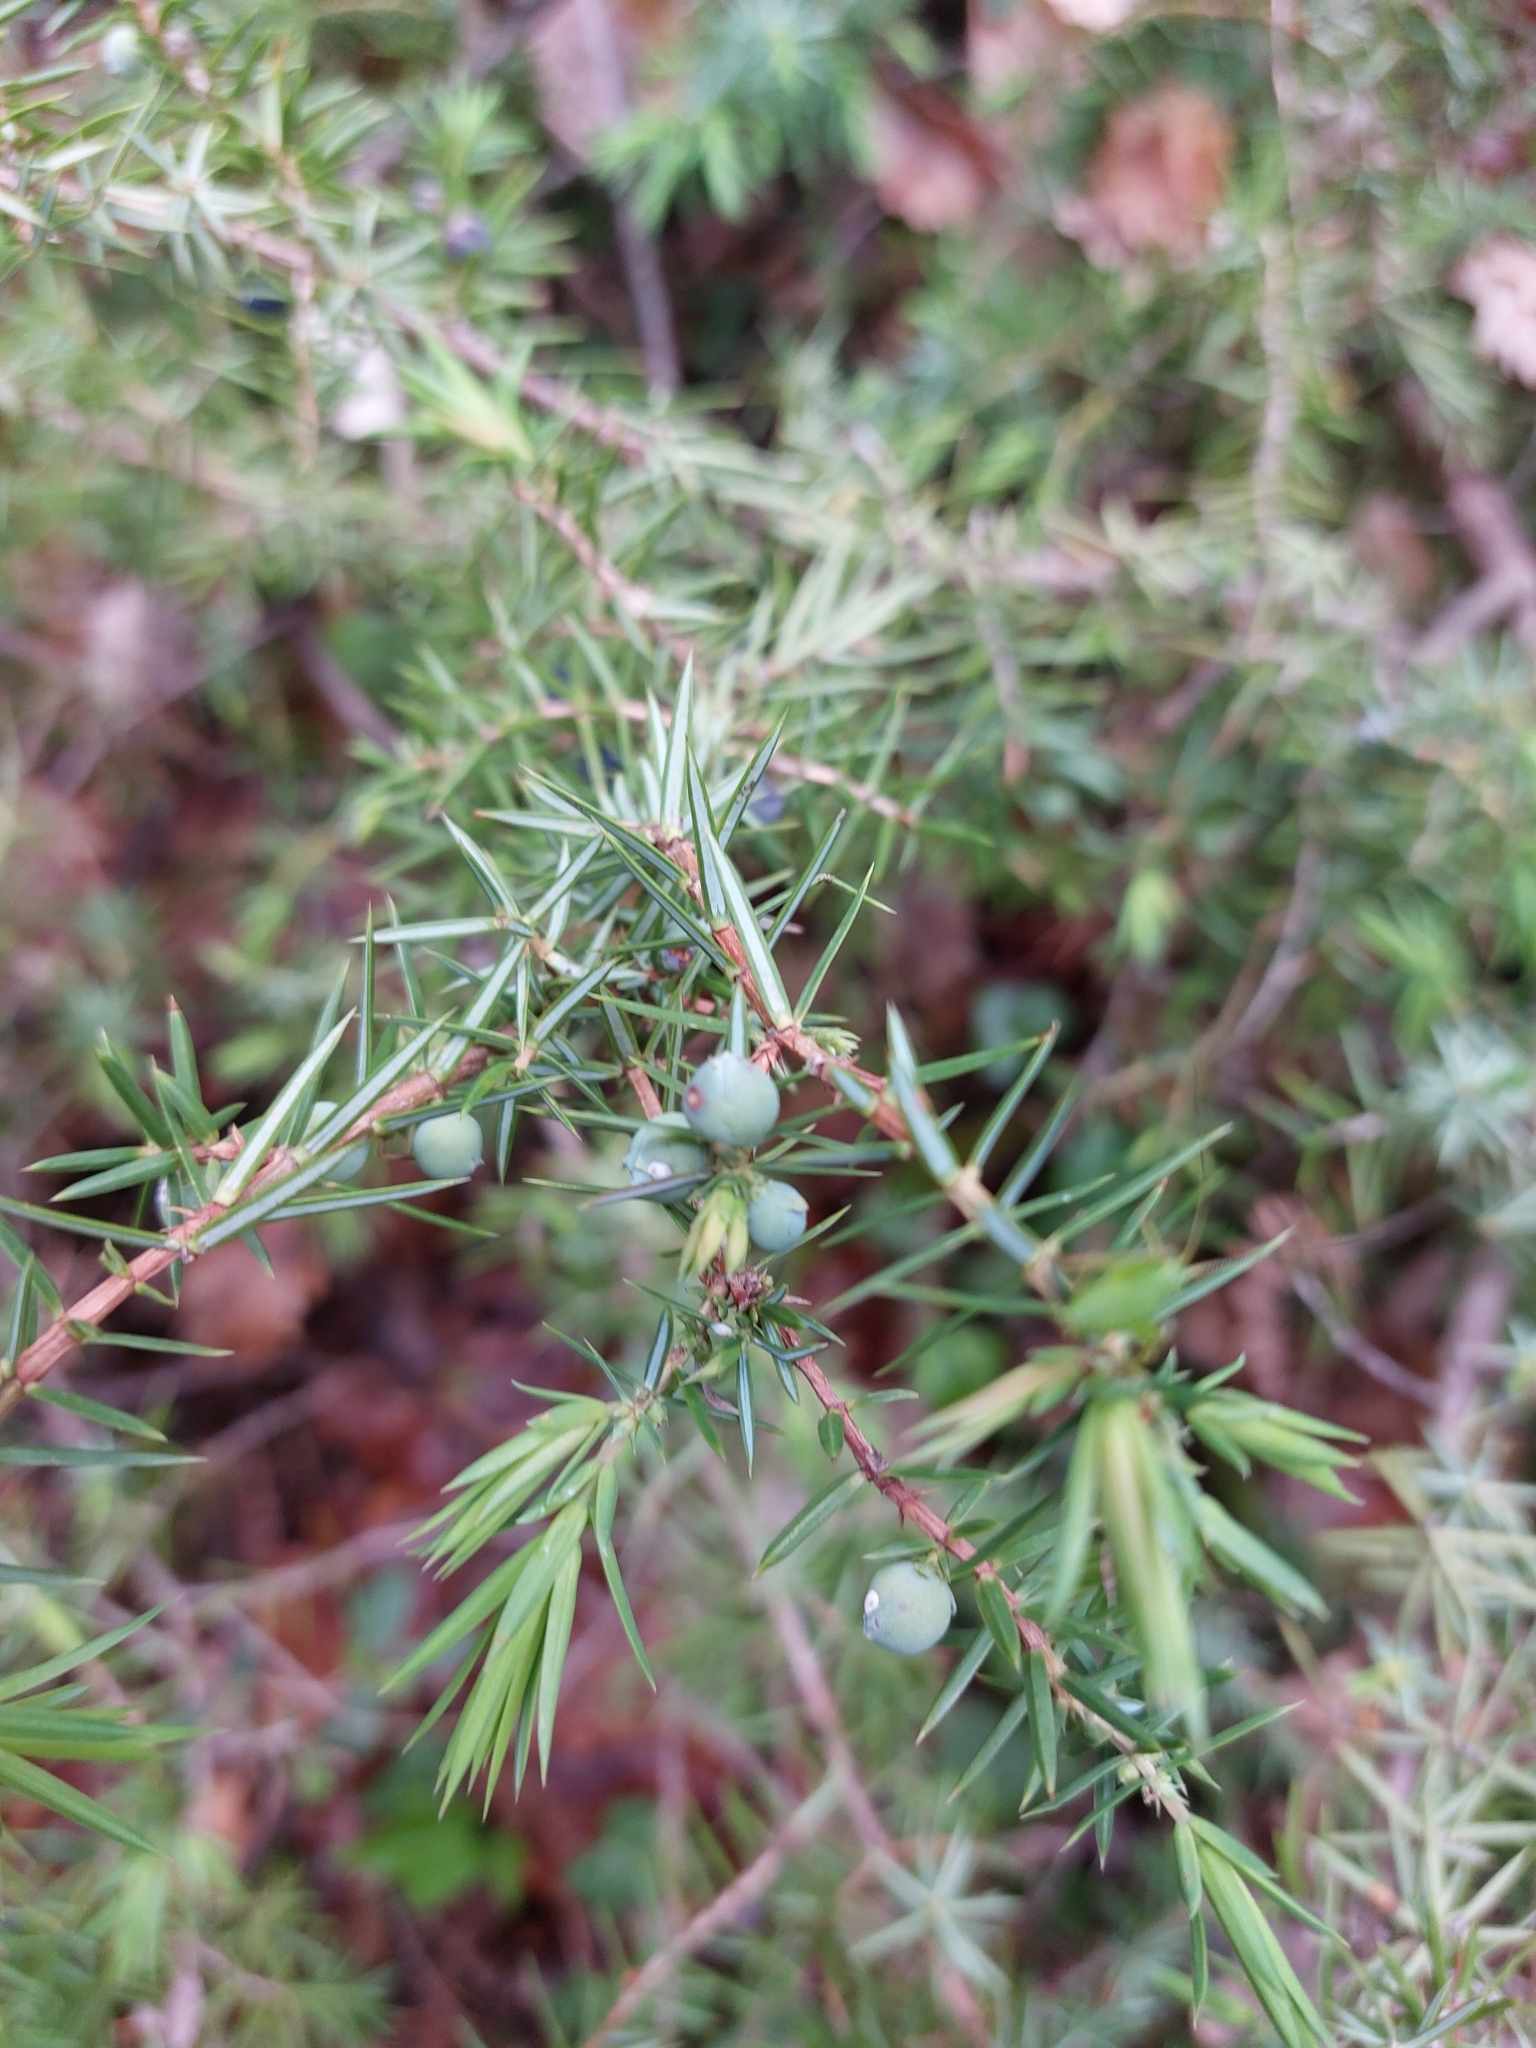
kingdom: Plantae
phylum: Tracheophyta
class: Pinopsida
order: Pinales
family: Cupressaceae
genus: Juniperus
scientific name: Juniperus communis
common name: Common juniper
